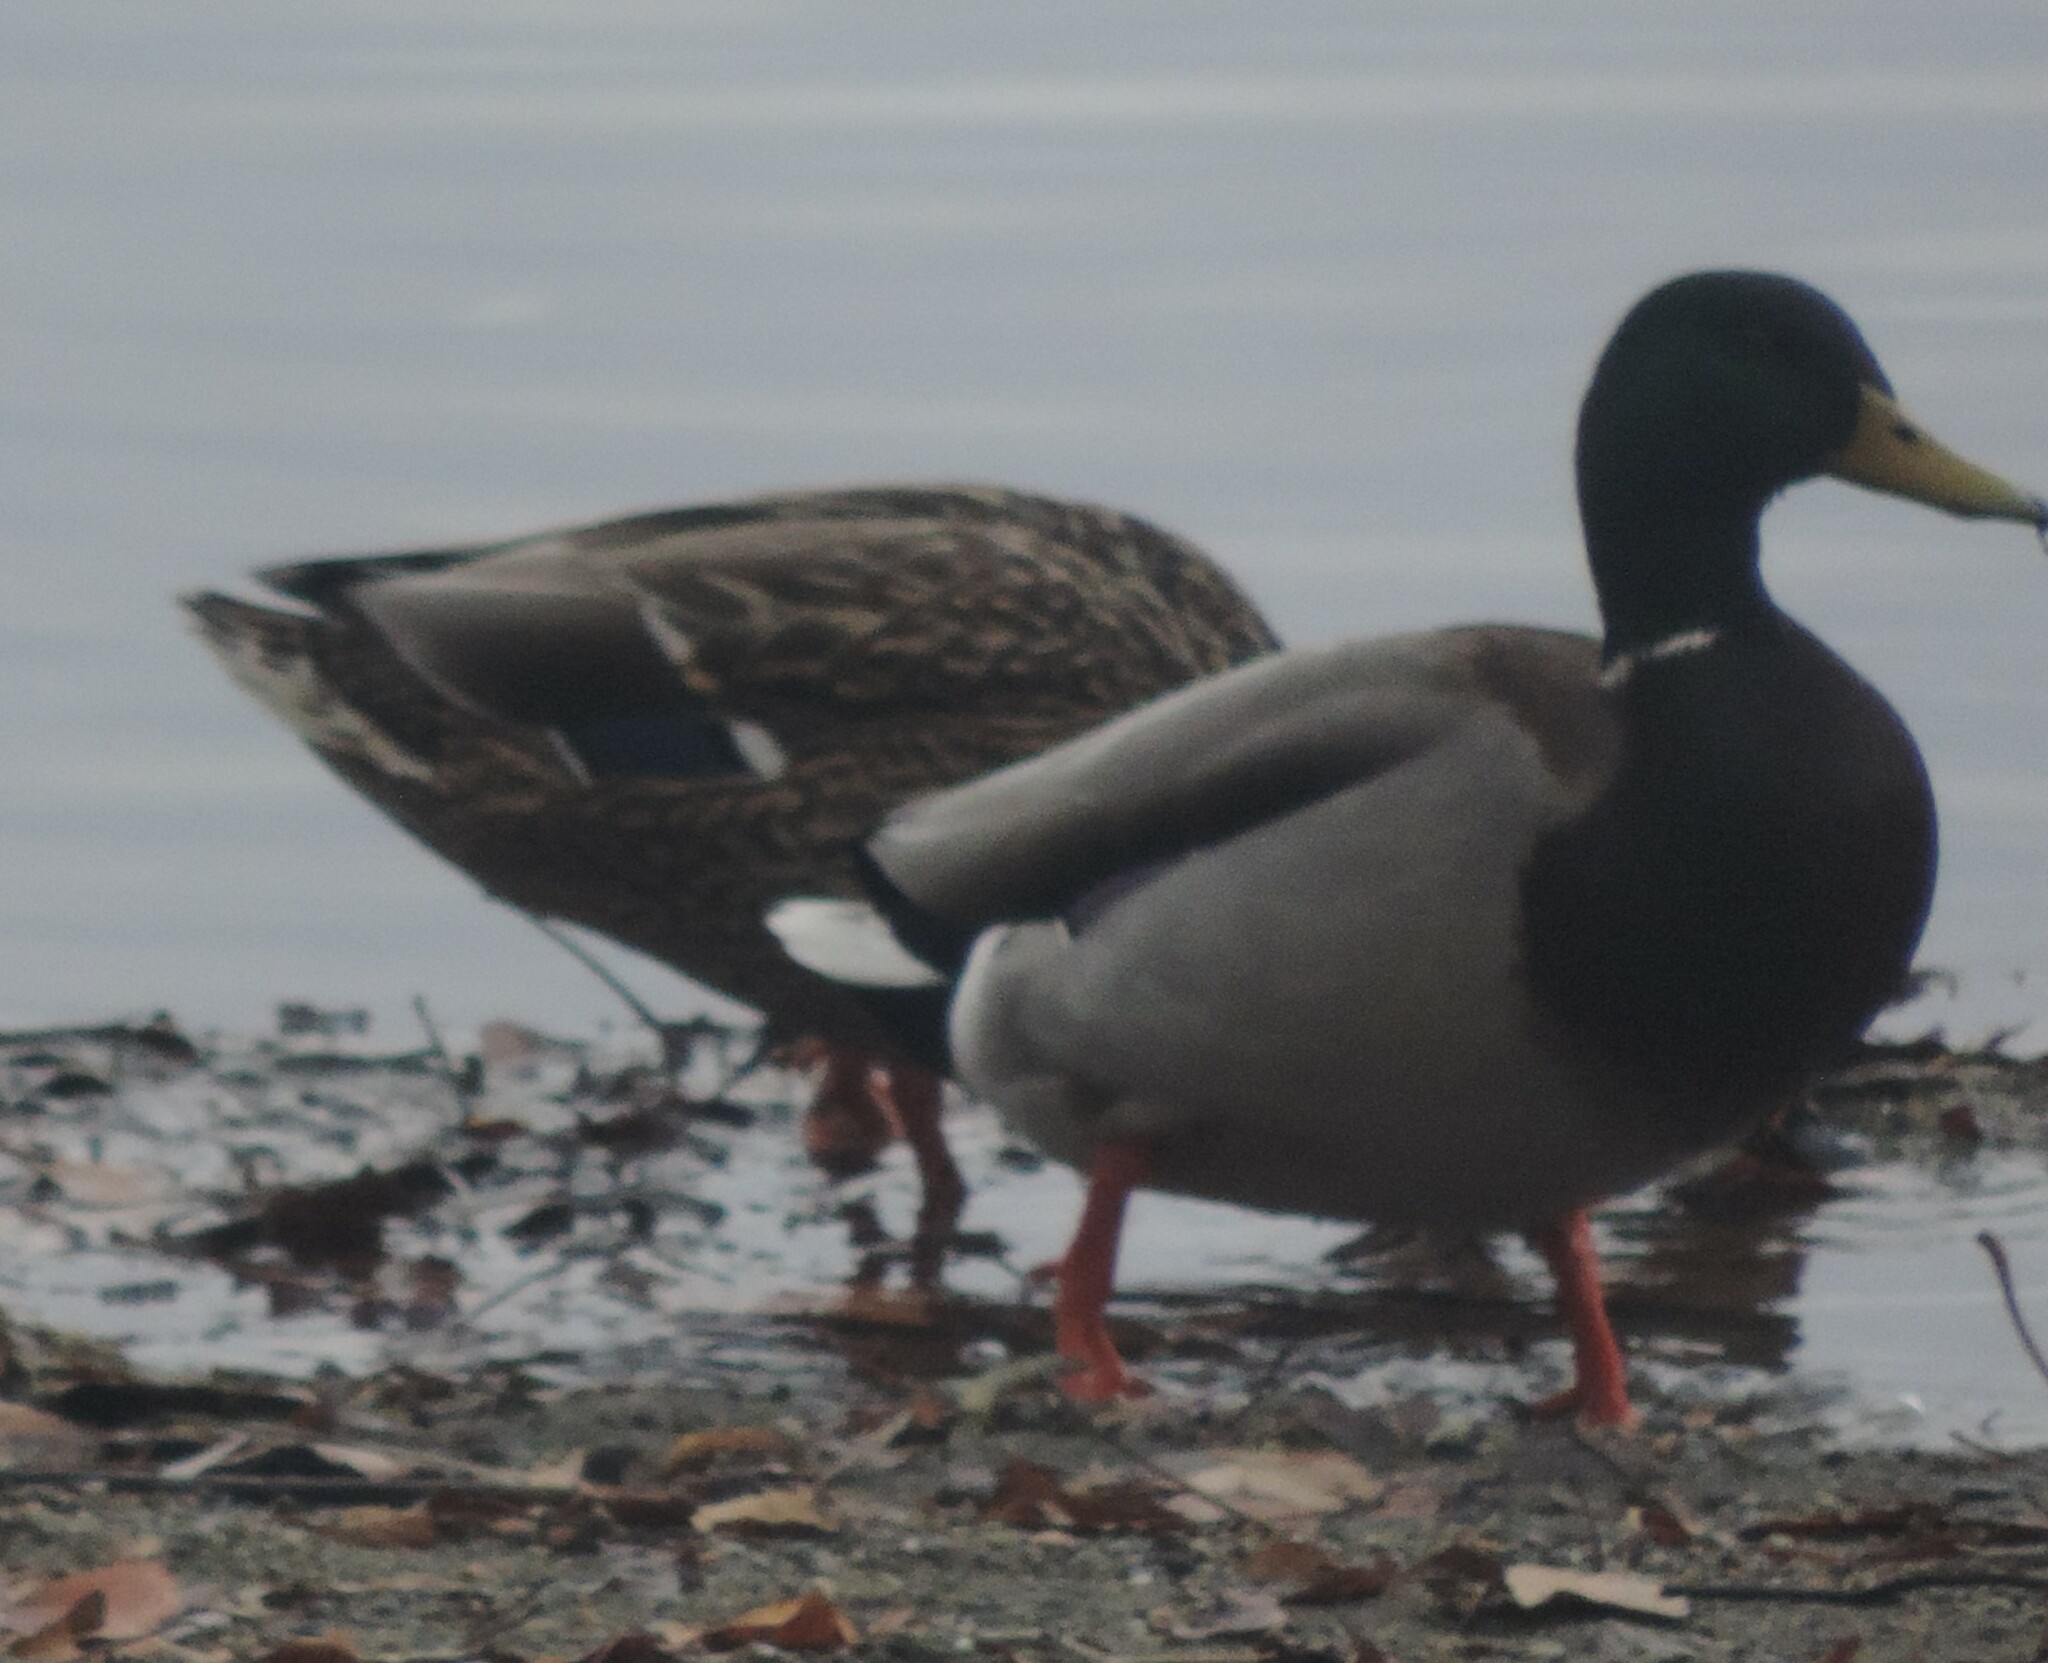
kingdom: Animalia
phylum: Chordata
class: Aves
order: Anseriformes
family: Anatidae
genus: Anas
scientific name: Anas platyrhynchos
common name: Mallard
